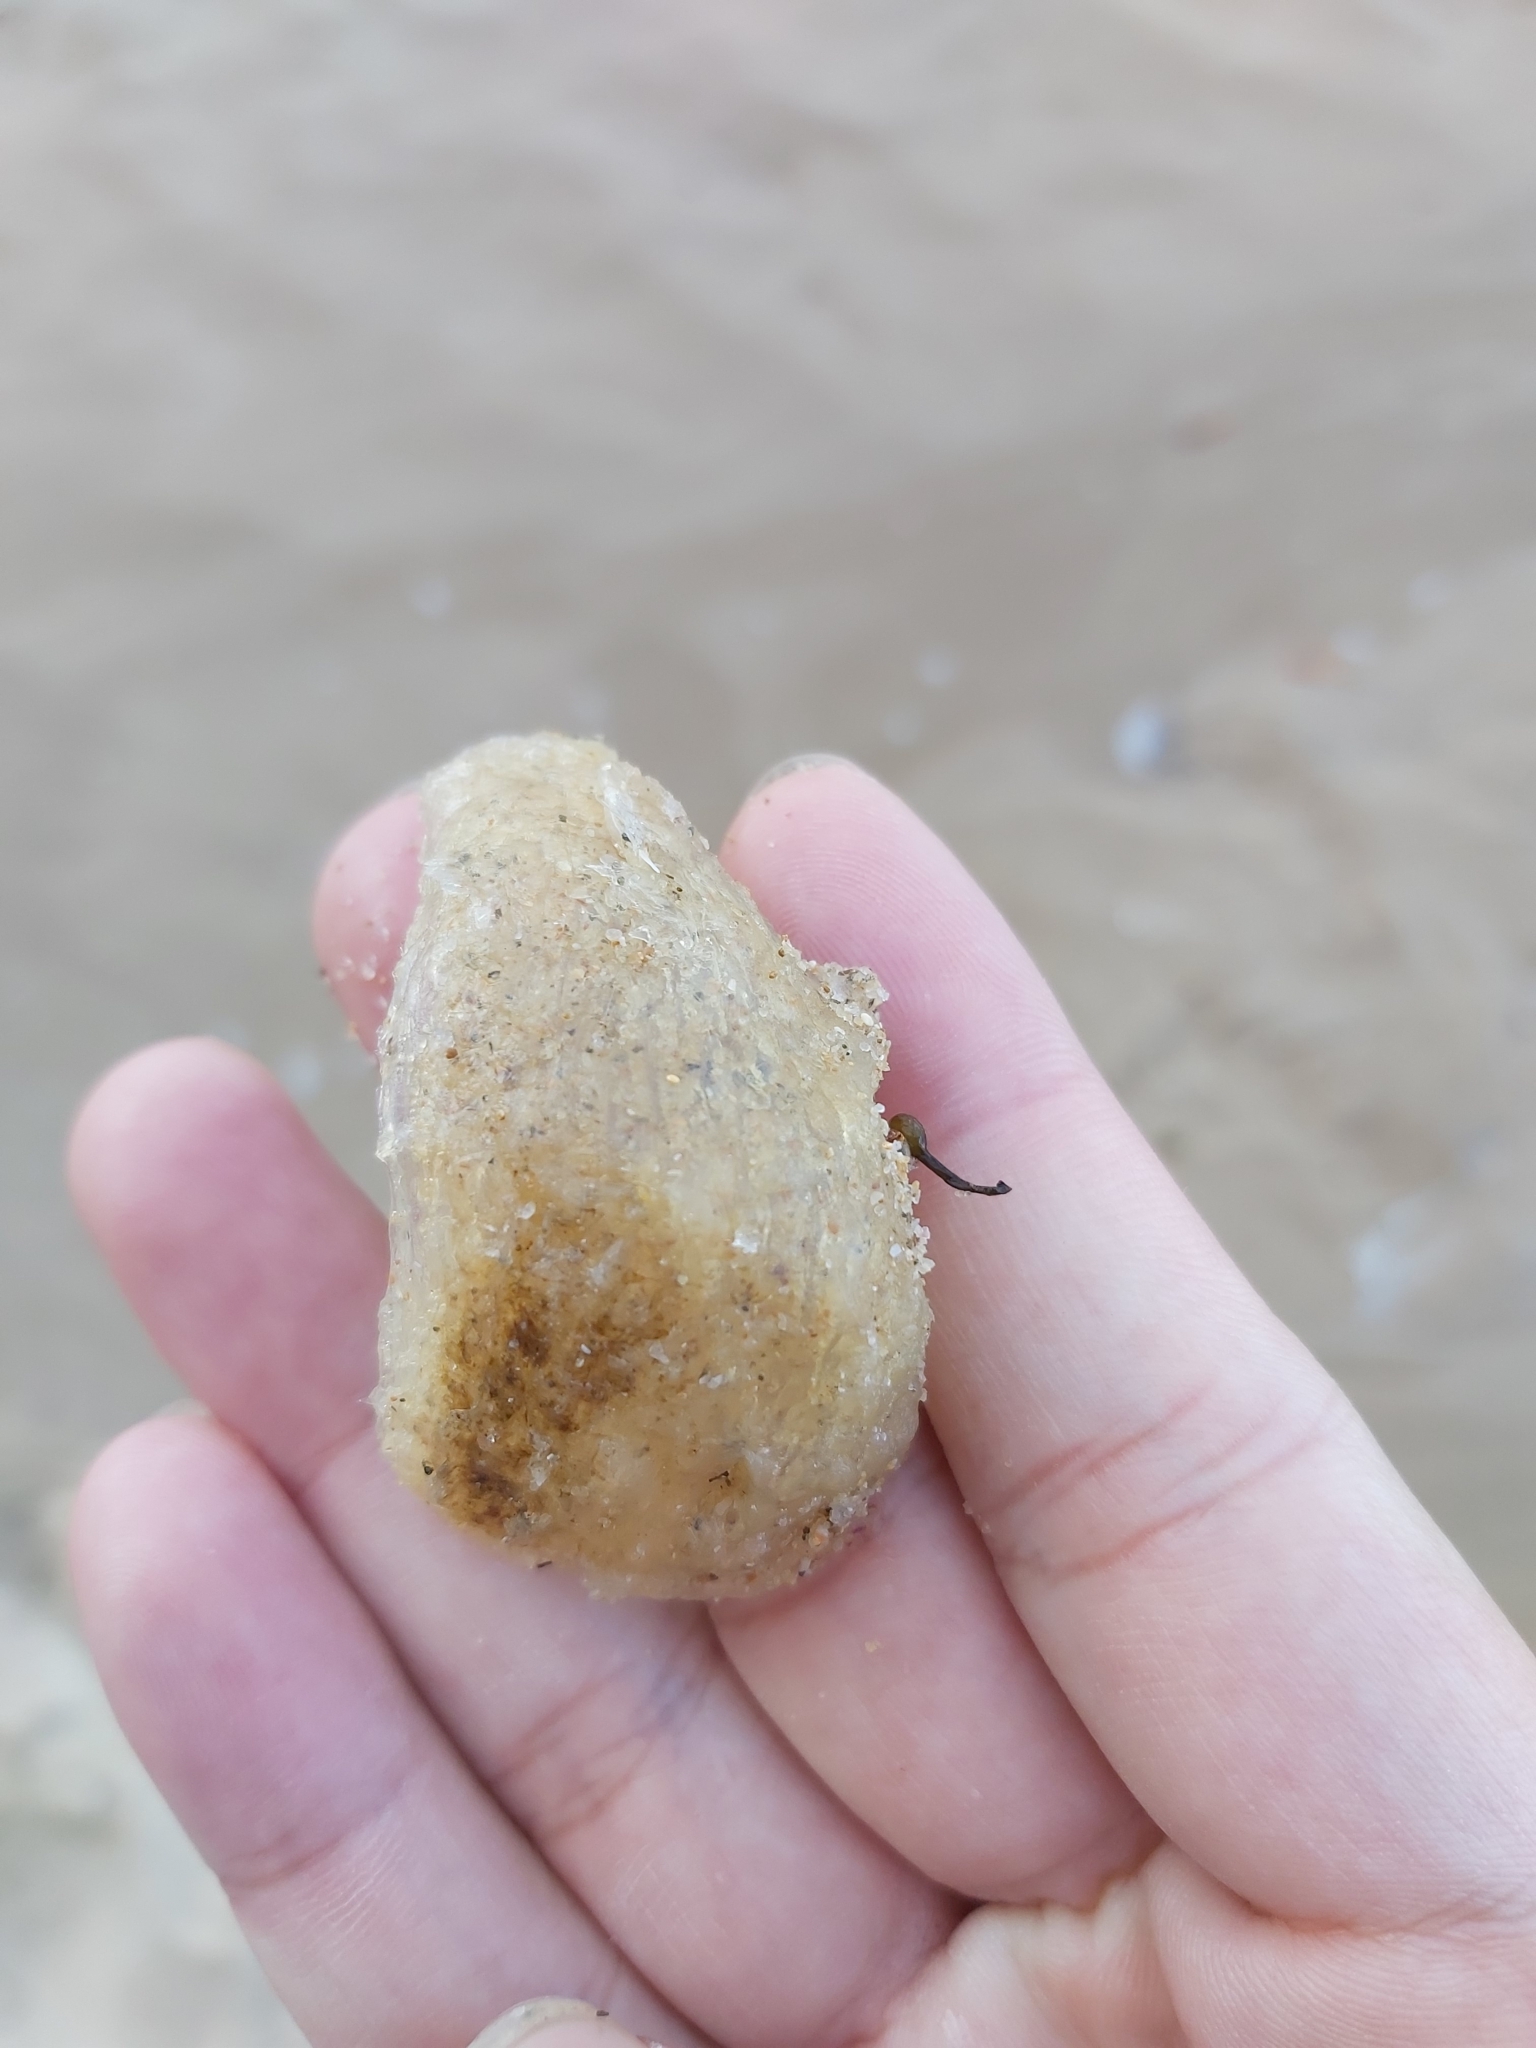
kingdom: Animalia
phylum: Mollusca
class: Gastropoda
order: Littorinimorpha
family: Cymatiidae
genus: Cabestana
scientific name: Cabestana spengleri
